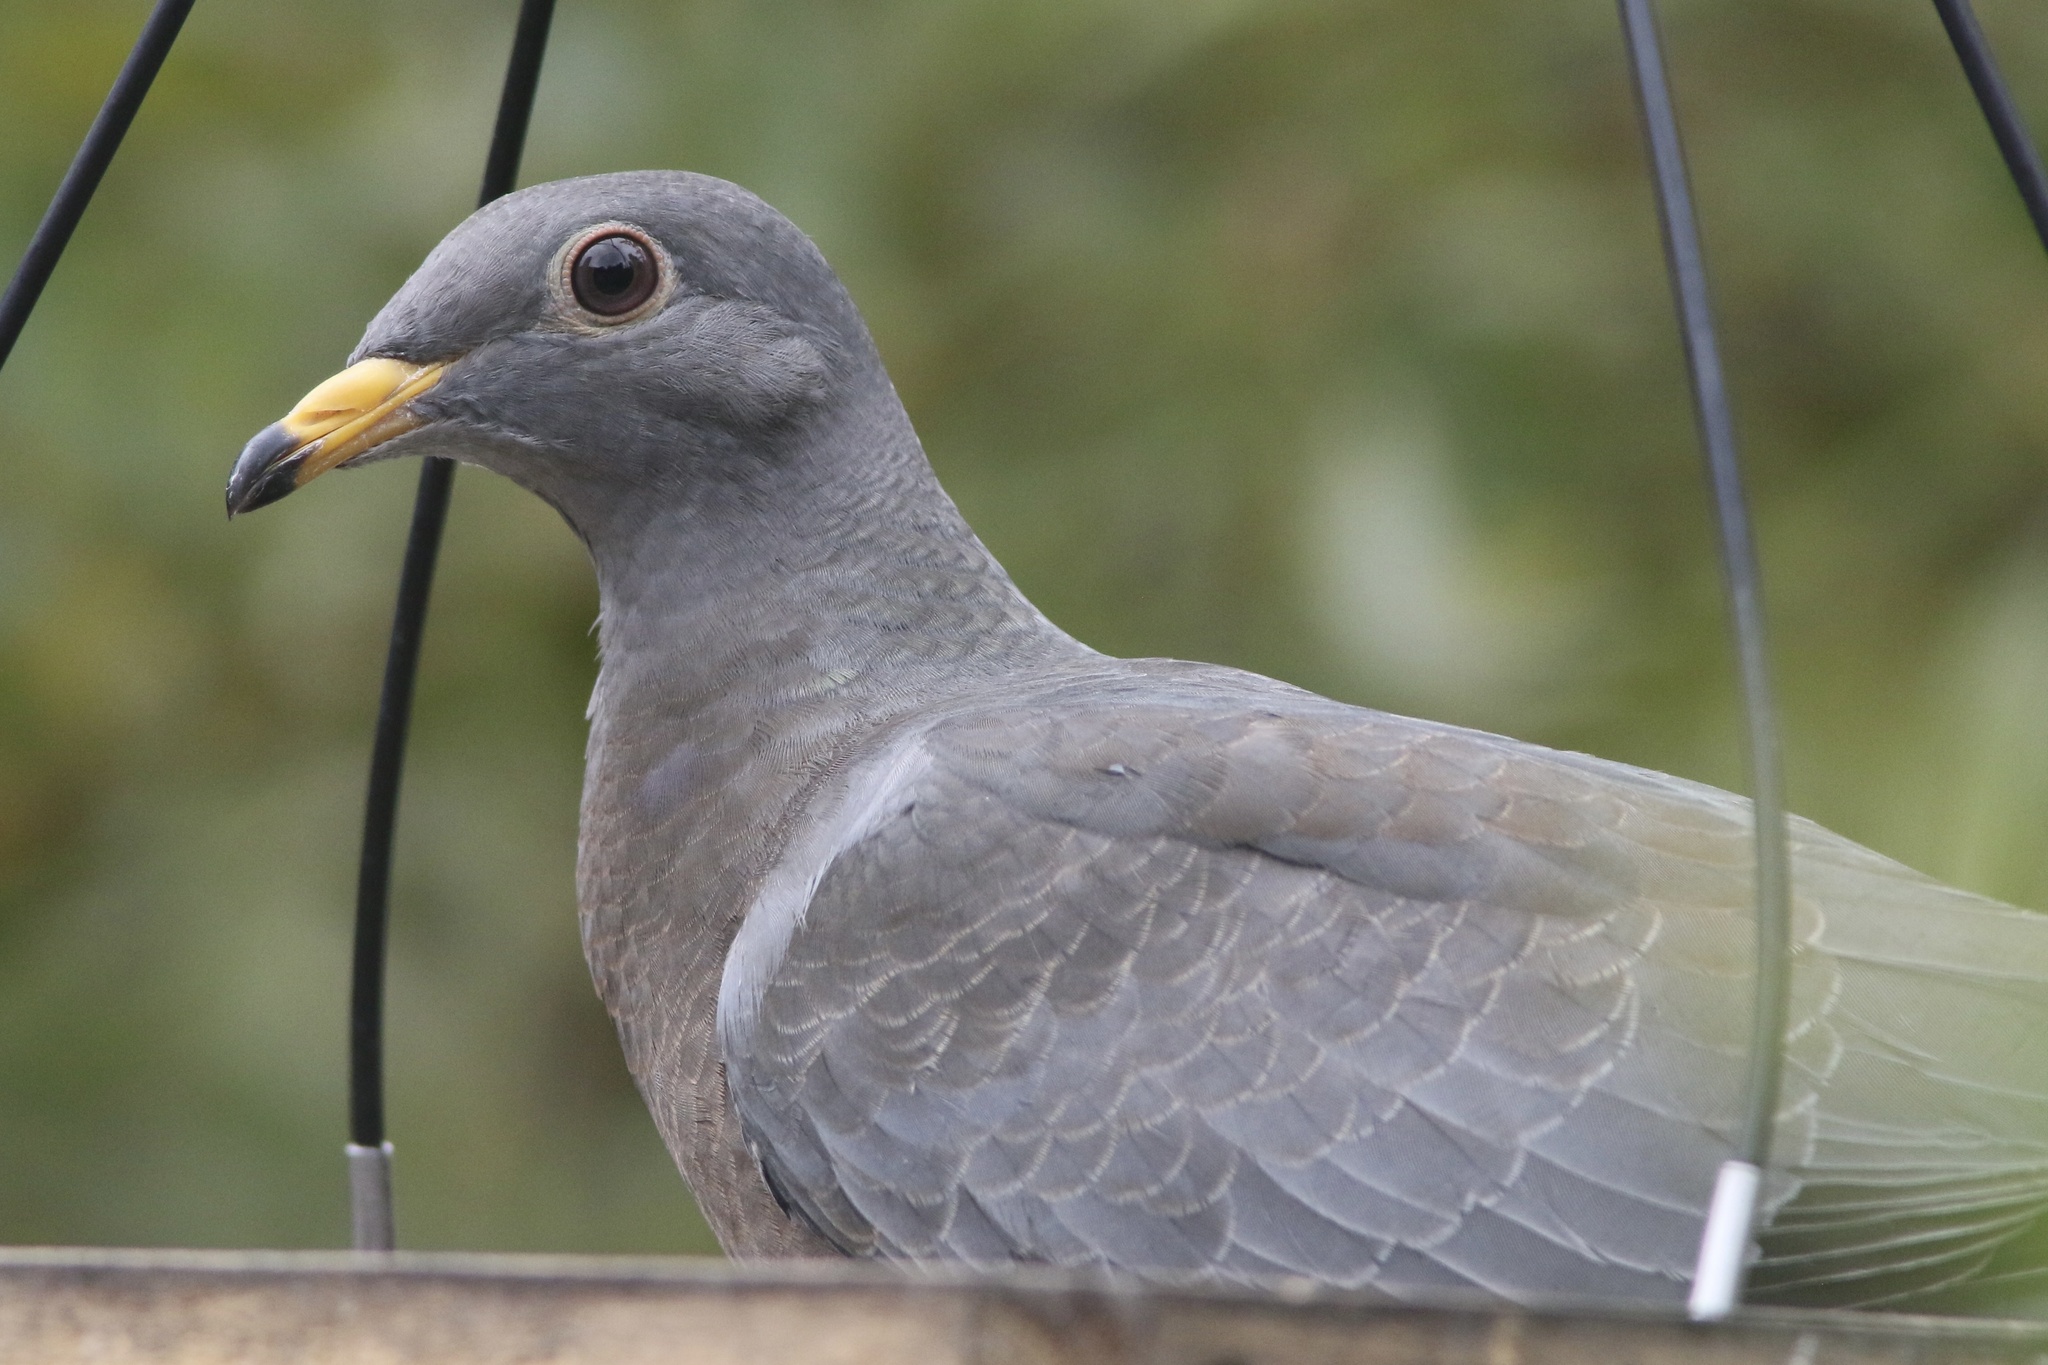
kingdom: Animalia
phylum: Chordata
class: Aves
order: Columbiformes
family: Columbidae
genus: Patagioenas
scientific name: Patagioenas fasciata
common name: Band-tailed pigeon
